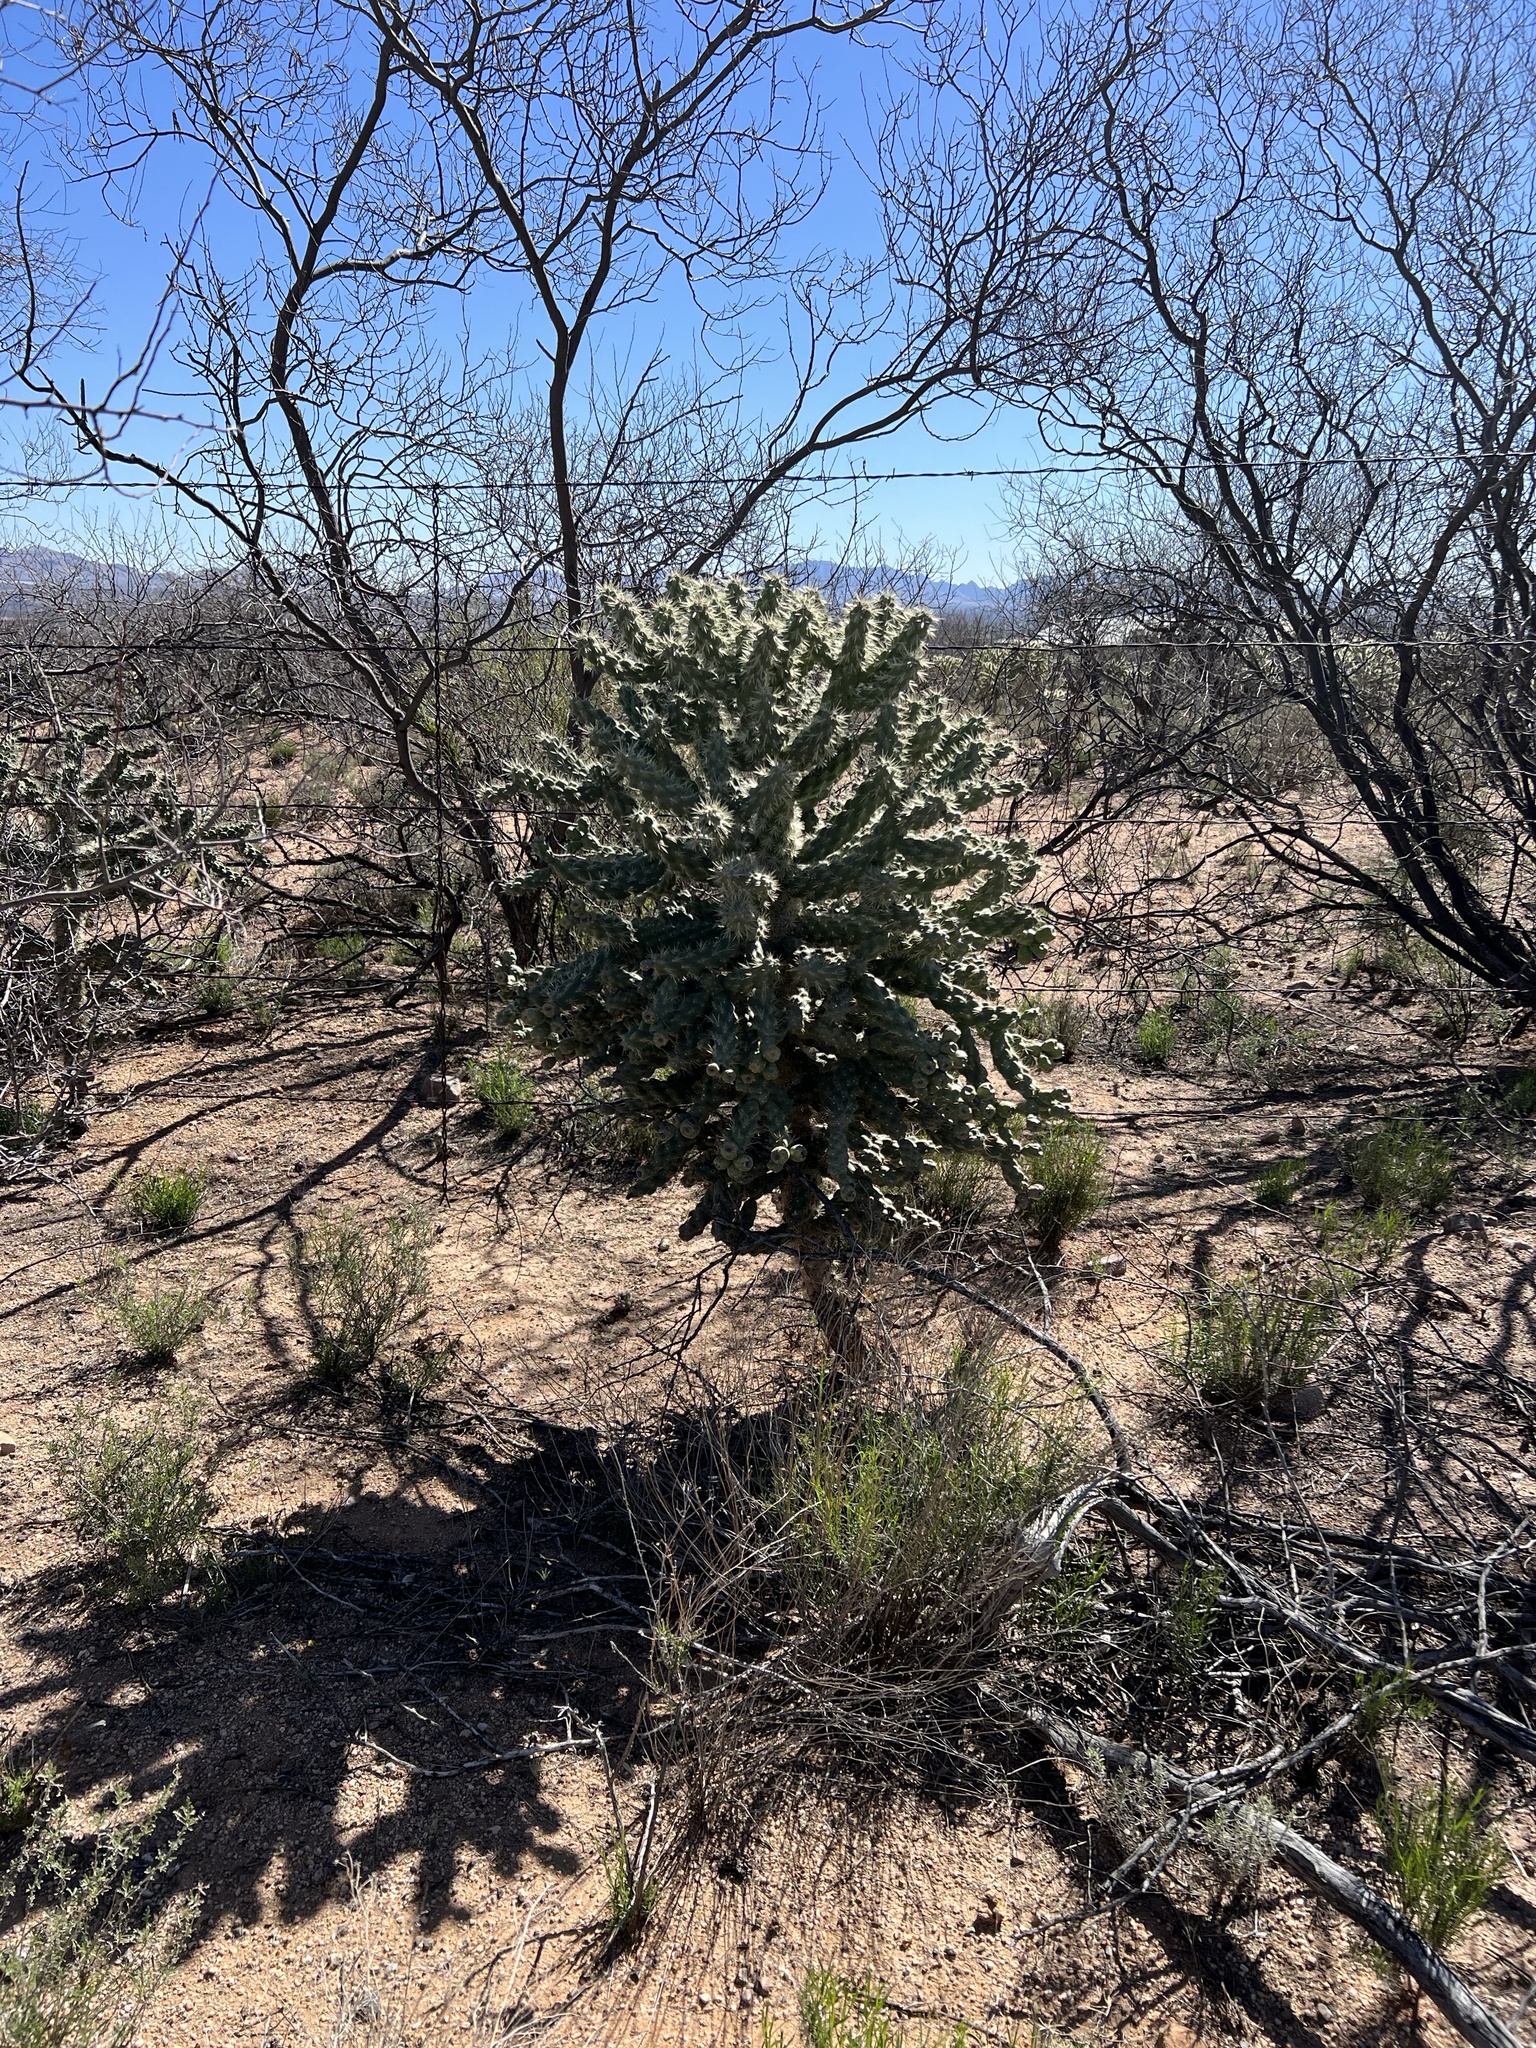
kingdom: Plantae
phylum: Tracheophyta
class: Magnoliopsida
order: Caryophyllales
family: Cactaceae
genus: Cylindropuntia
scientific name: Cylindropuntia fulgida
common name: Jumping cholla
